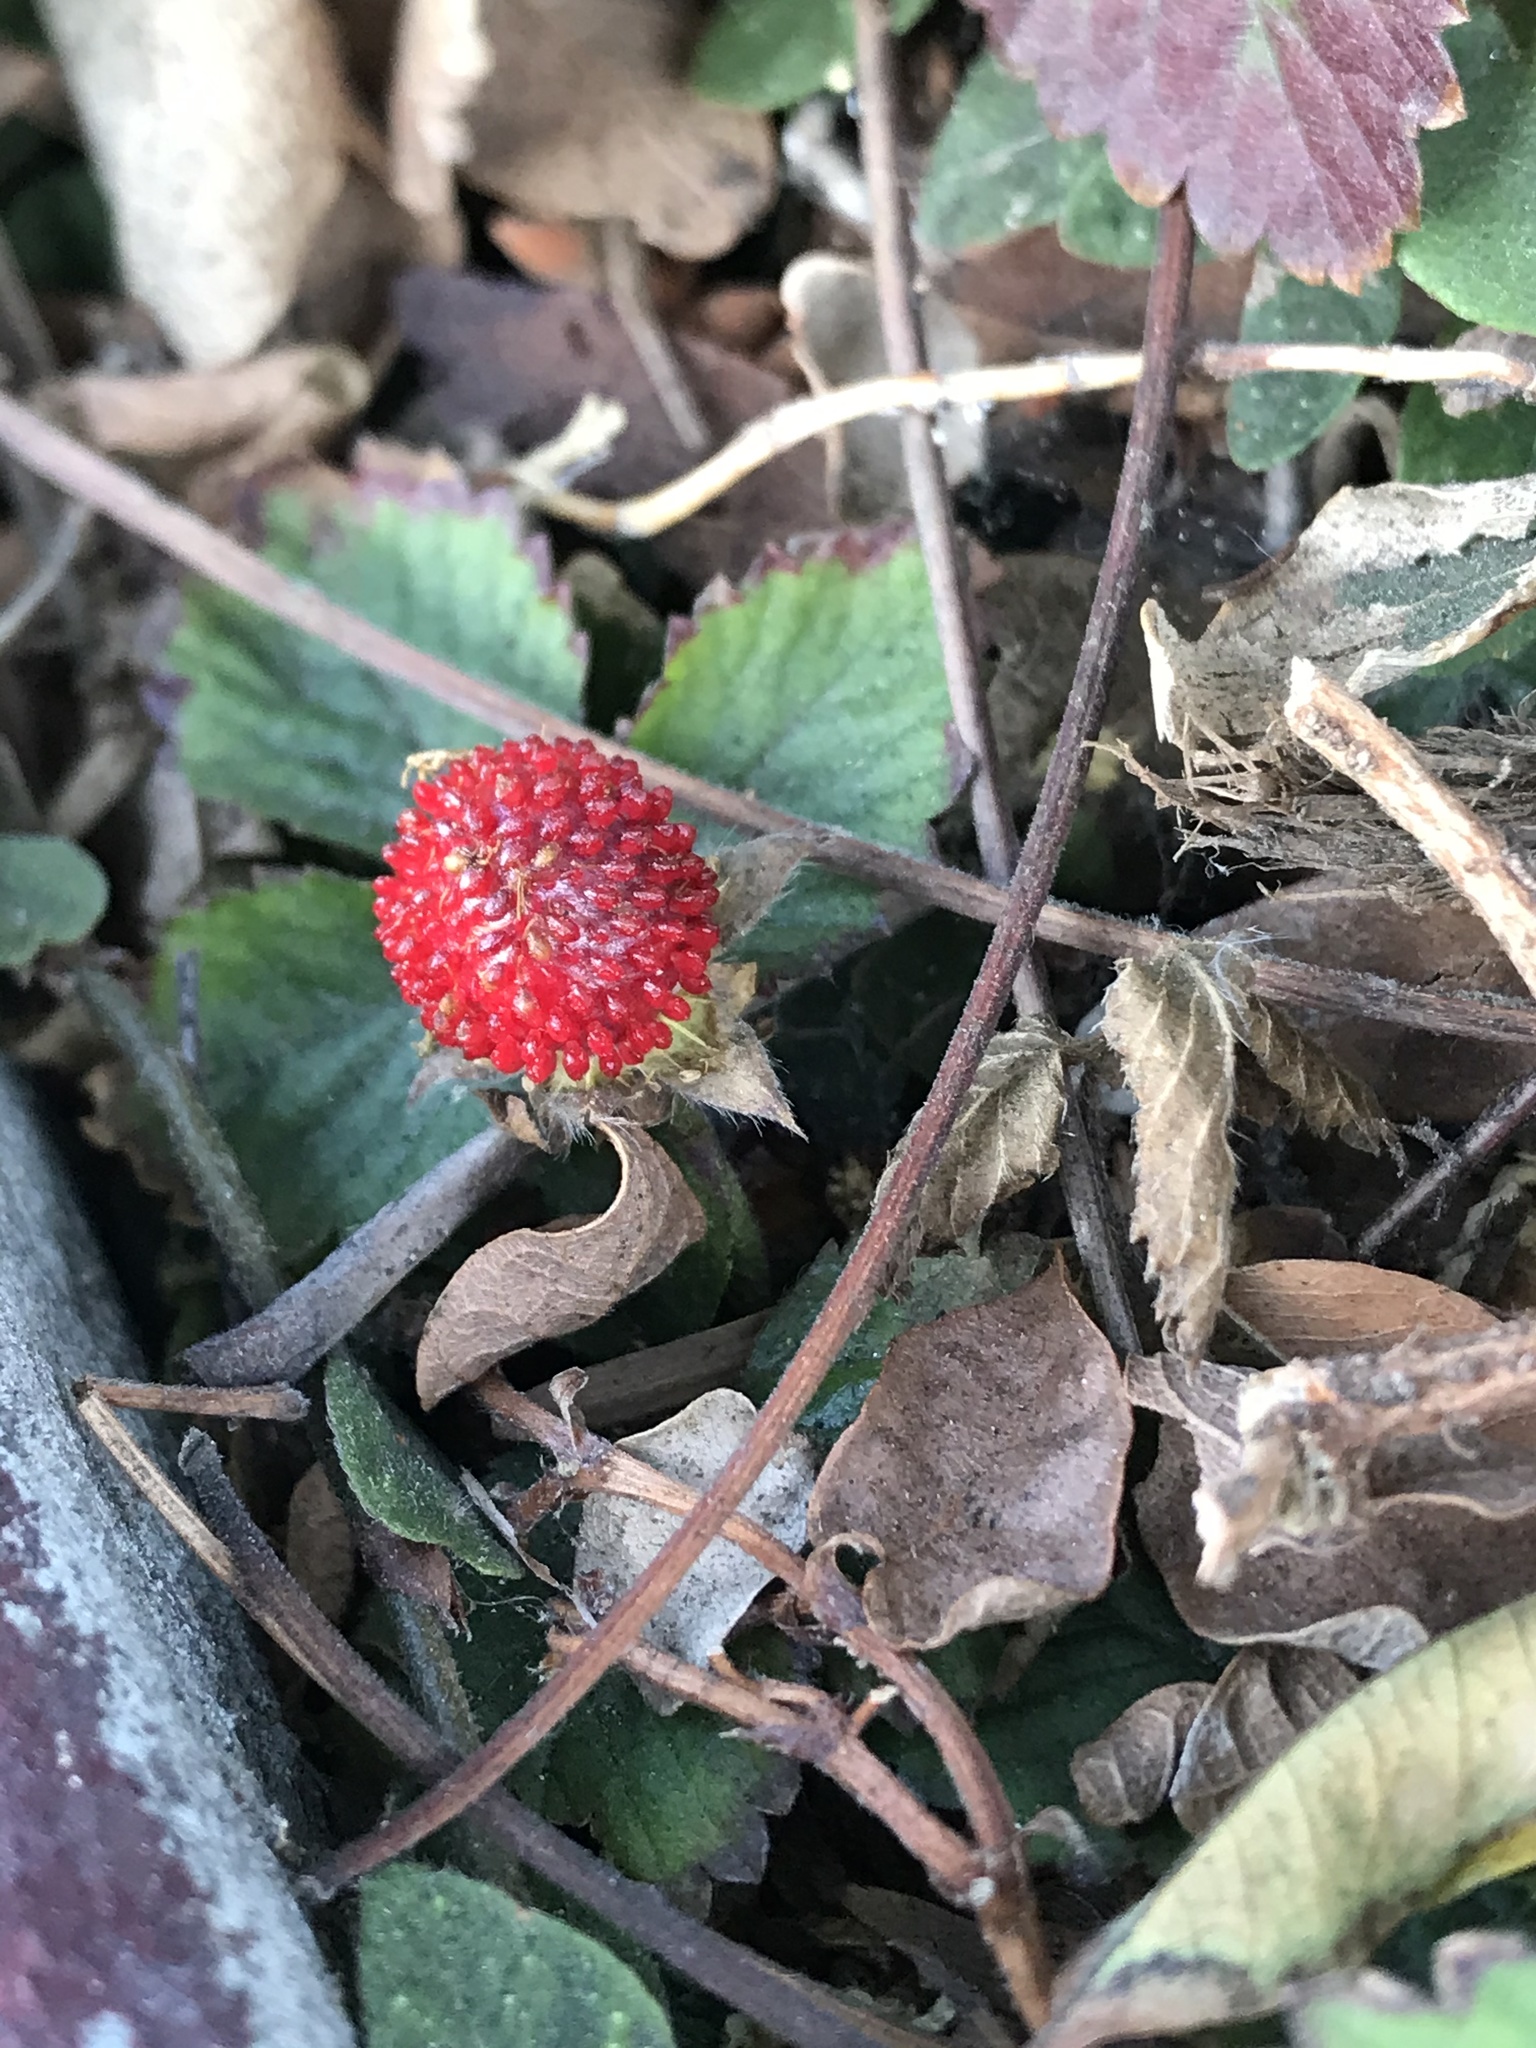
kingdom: Plantae
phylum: Tracheophyta
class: Magnoliopsida
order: Rosales
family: Rosaceae
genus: Potentilla
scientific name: Potentilla indica
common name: Yellow-flowered strawberry
